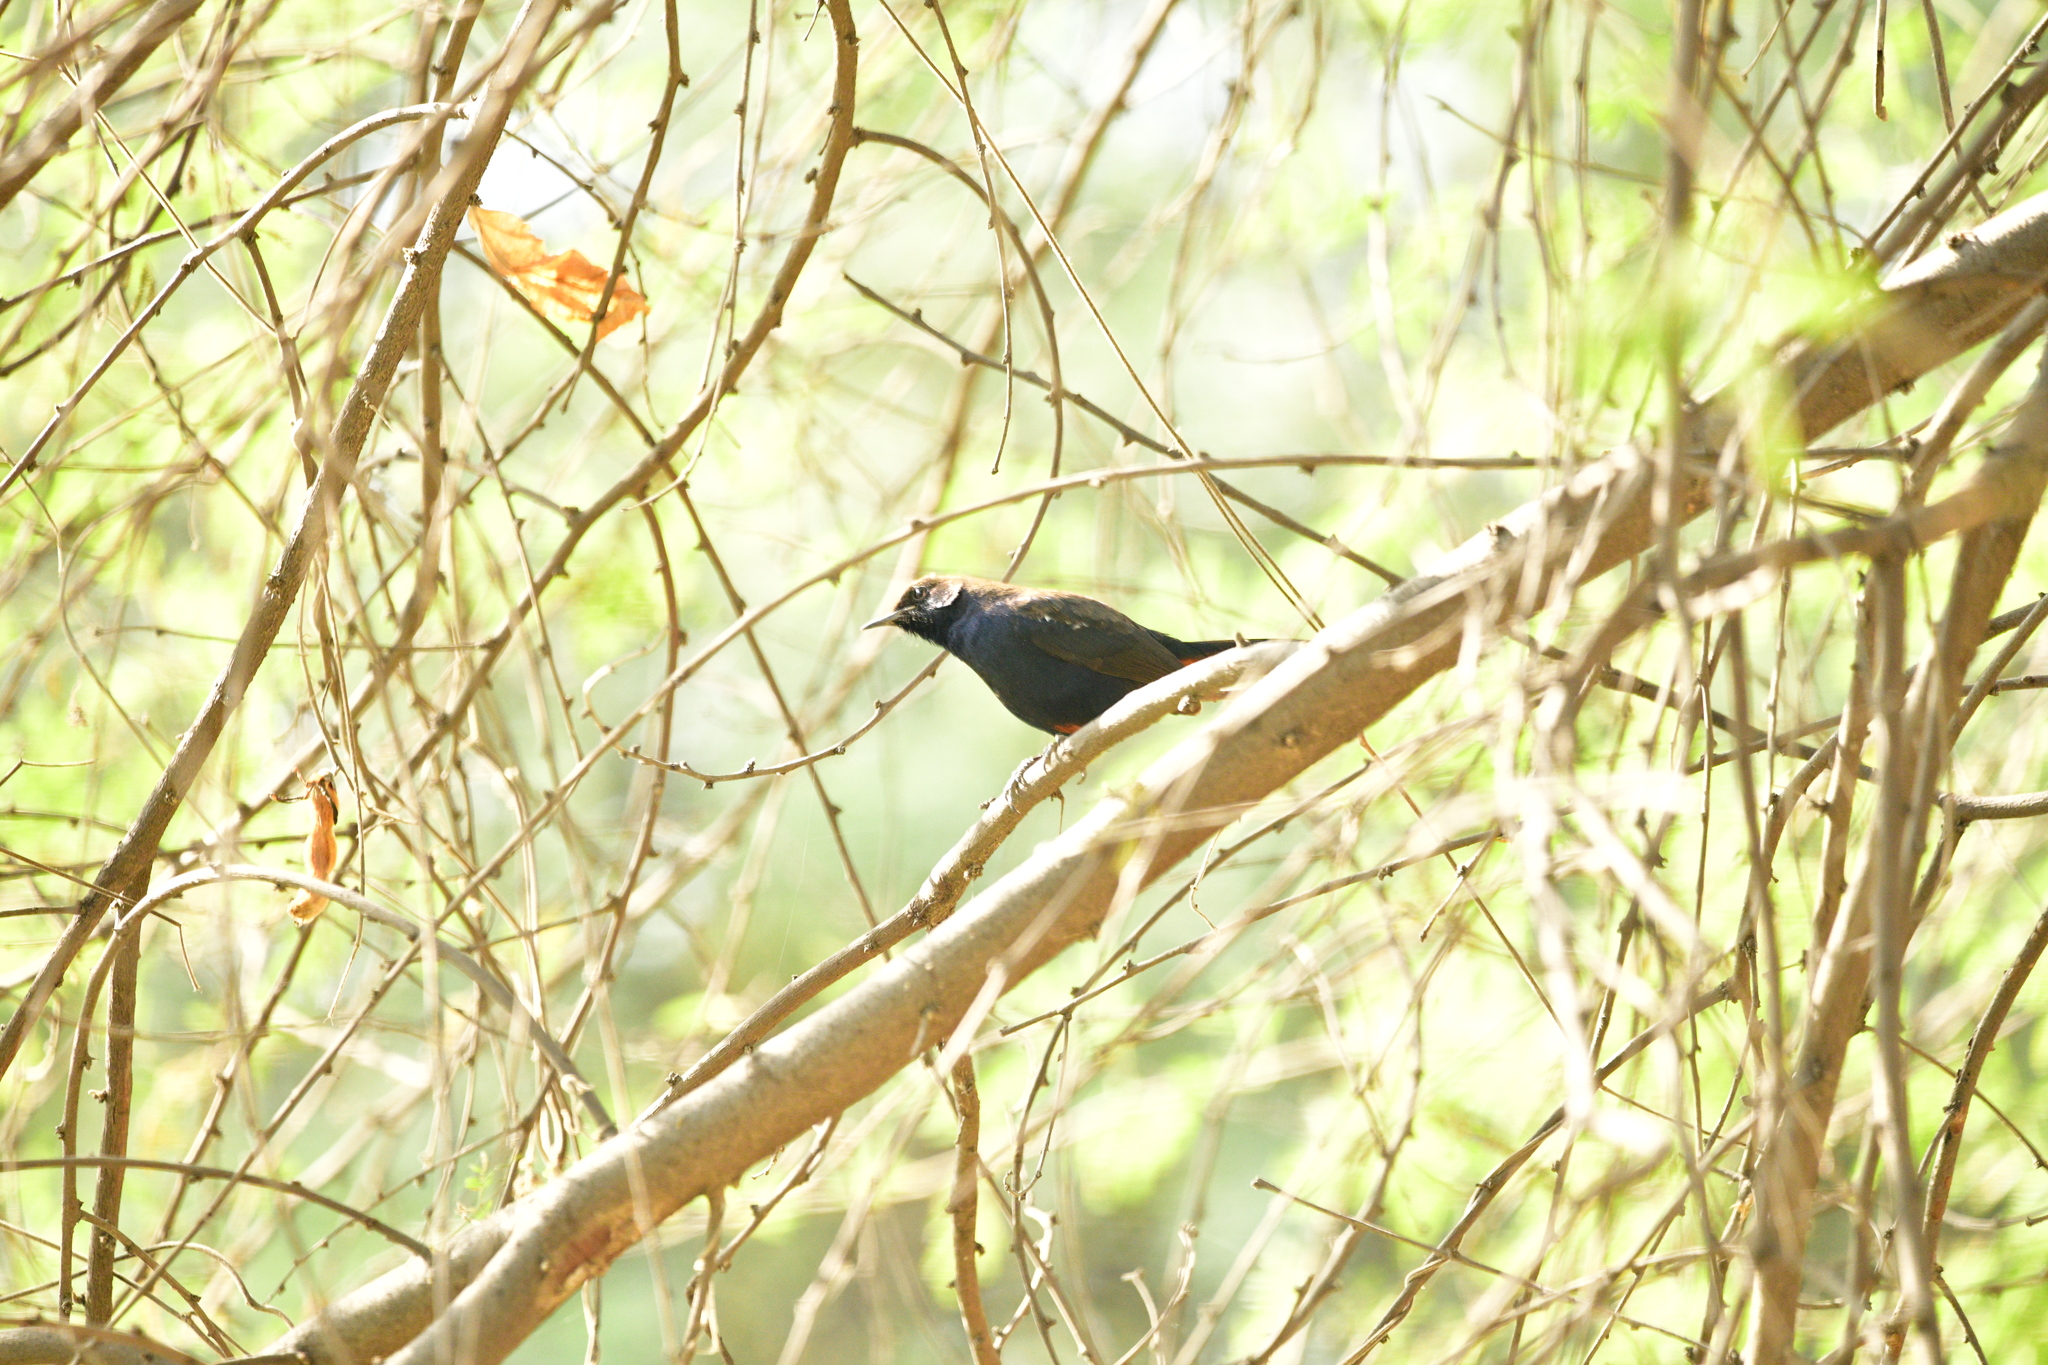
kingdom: Animalia
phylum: Chordata
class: Aves
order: Passeriformes
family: Muscicapidae
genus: Saxicoloides
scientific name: Saxicoloides fulicatus
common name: Indian robin
